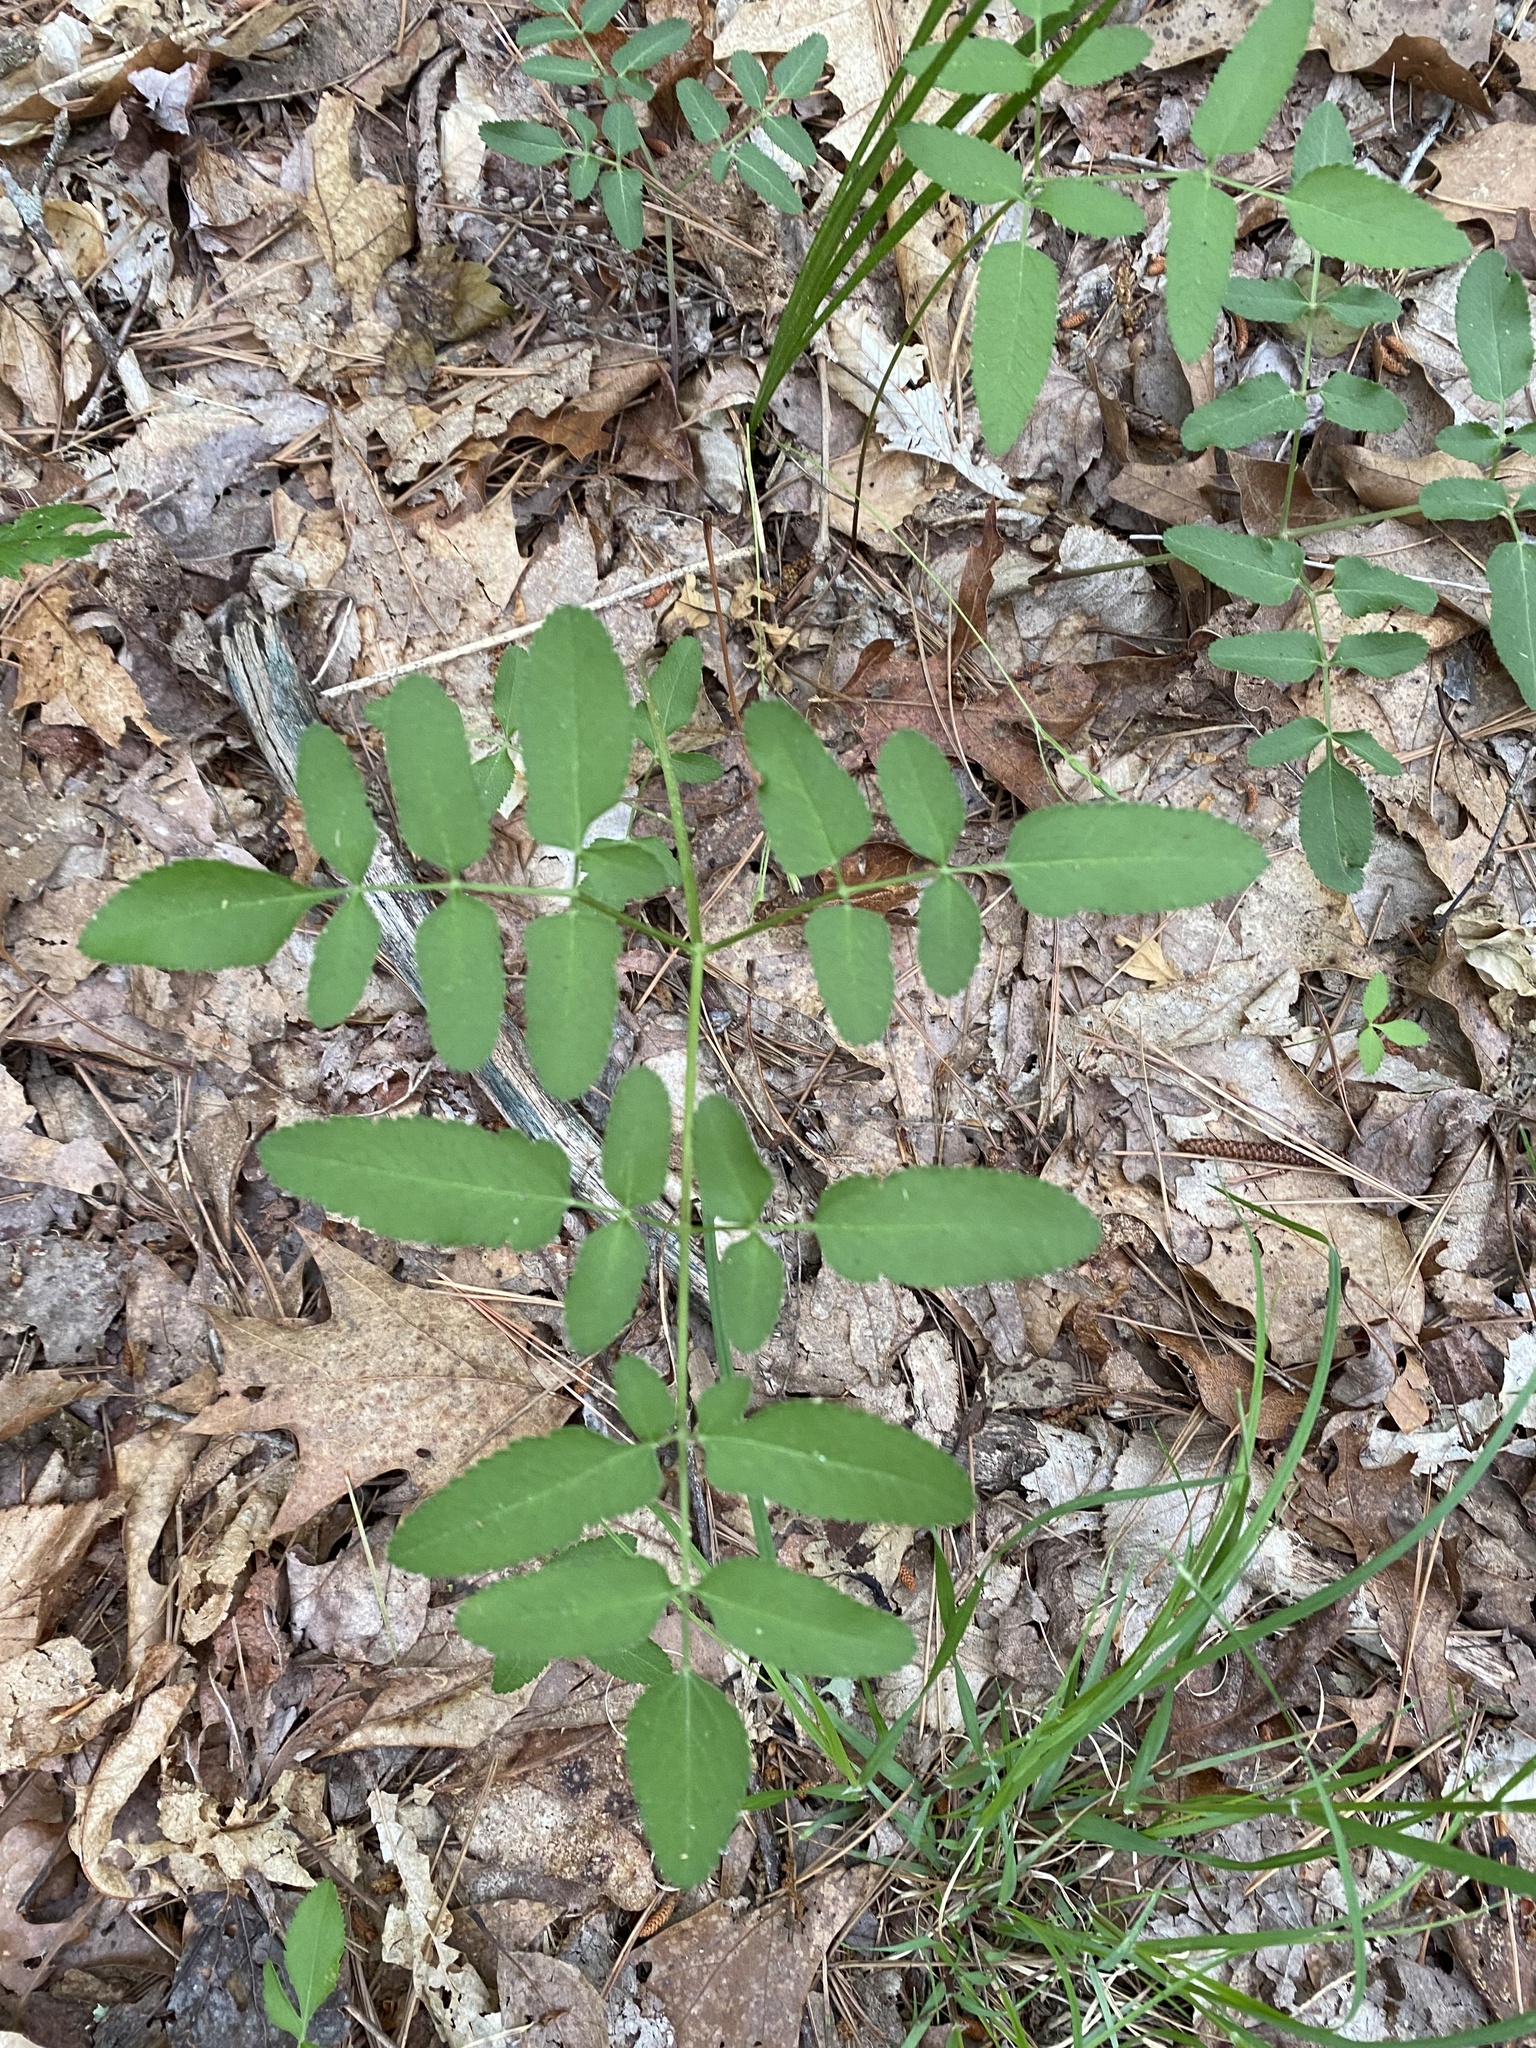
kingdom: Plantae
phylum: Tracheophyta
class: Magnoliopsida
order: Apiales
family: Apiaceae
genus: Angelica
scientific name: Angelica venenosa
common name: Hairy angelica
